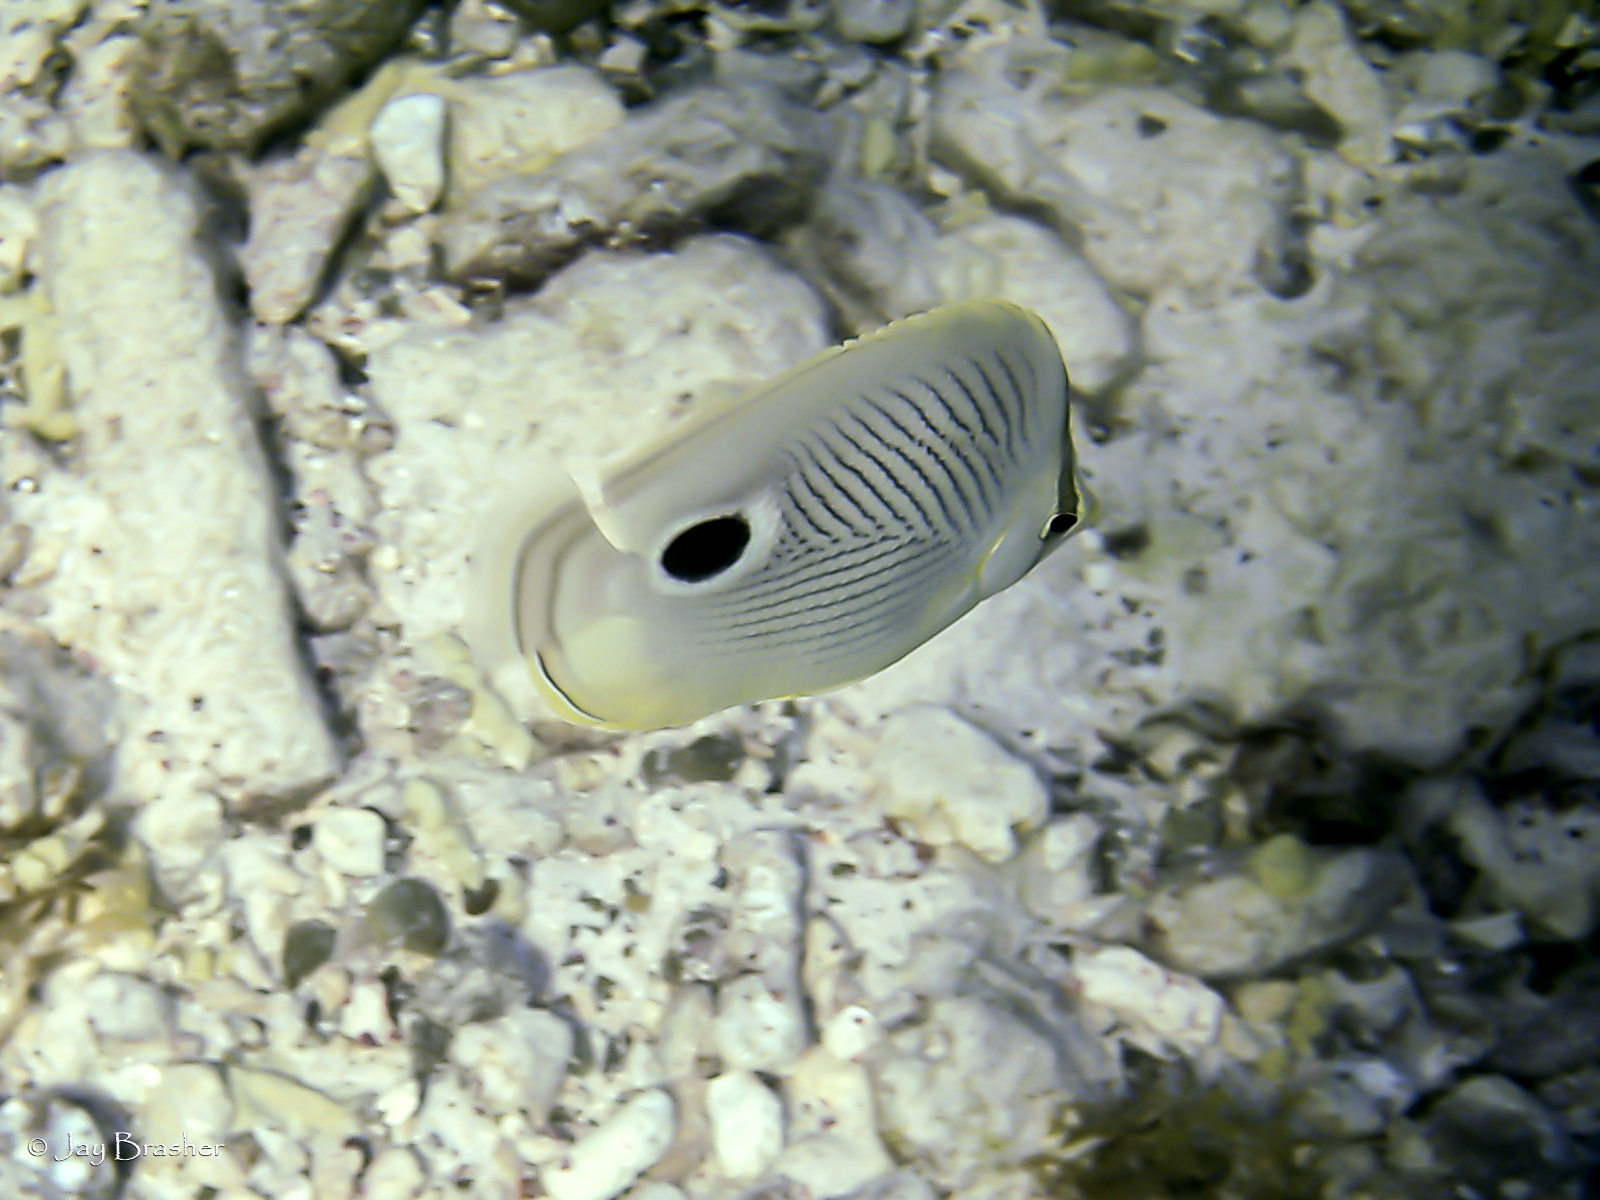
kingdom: Animalia
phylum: Chordata
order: Perciformes
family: Chaetodontidae
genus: Chaetodon
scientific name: Chaetodon capistratus
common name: Kete
